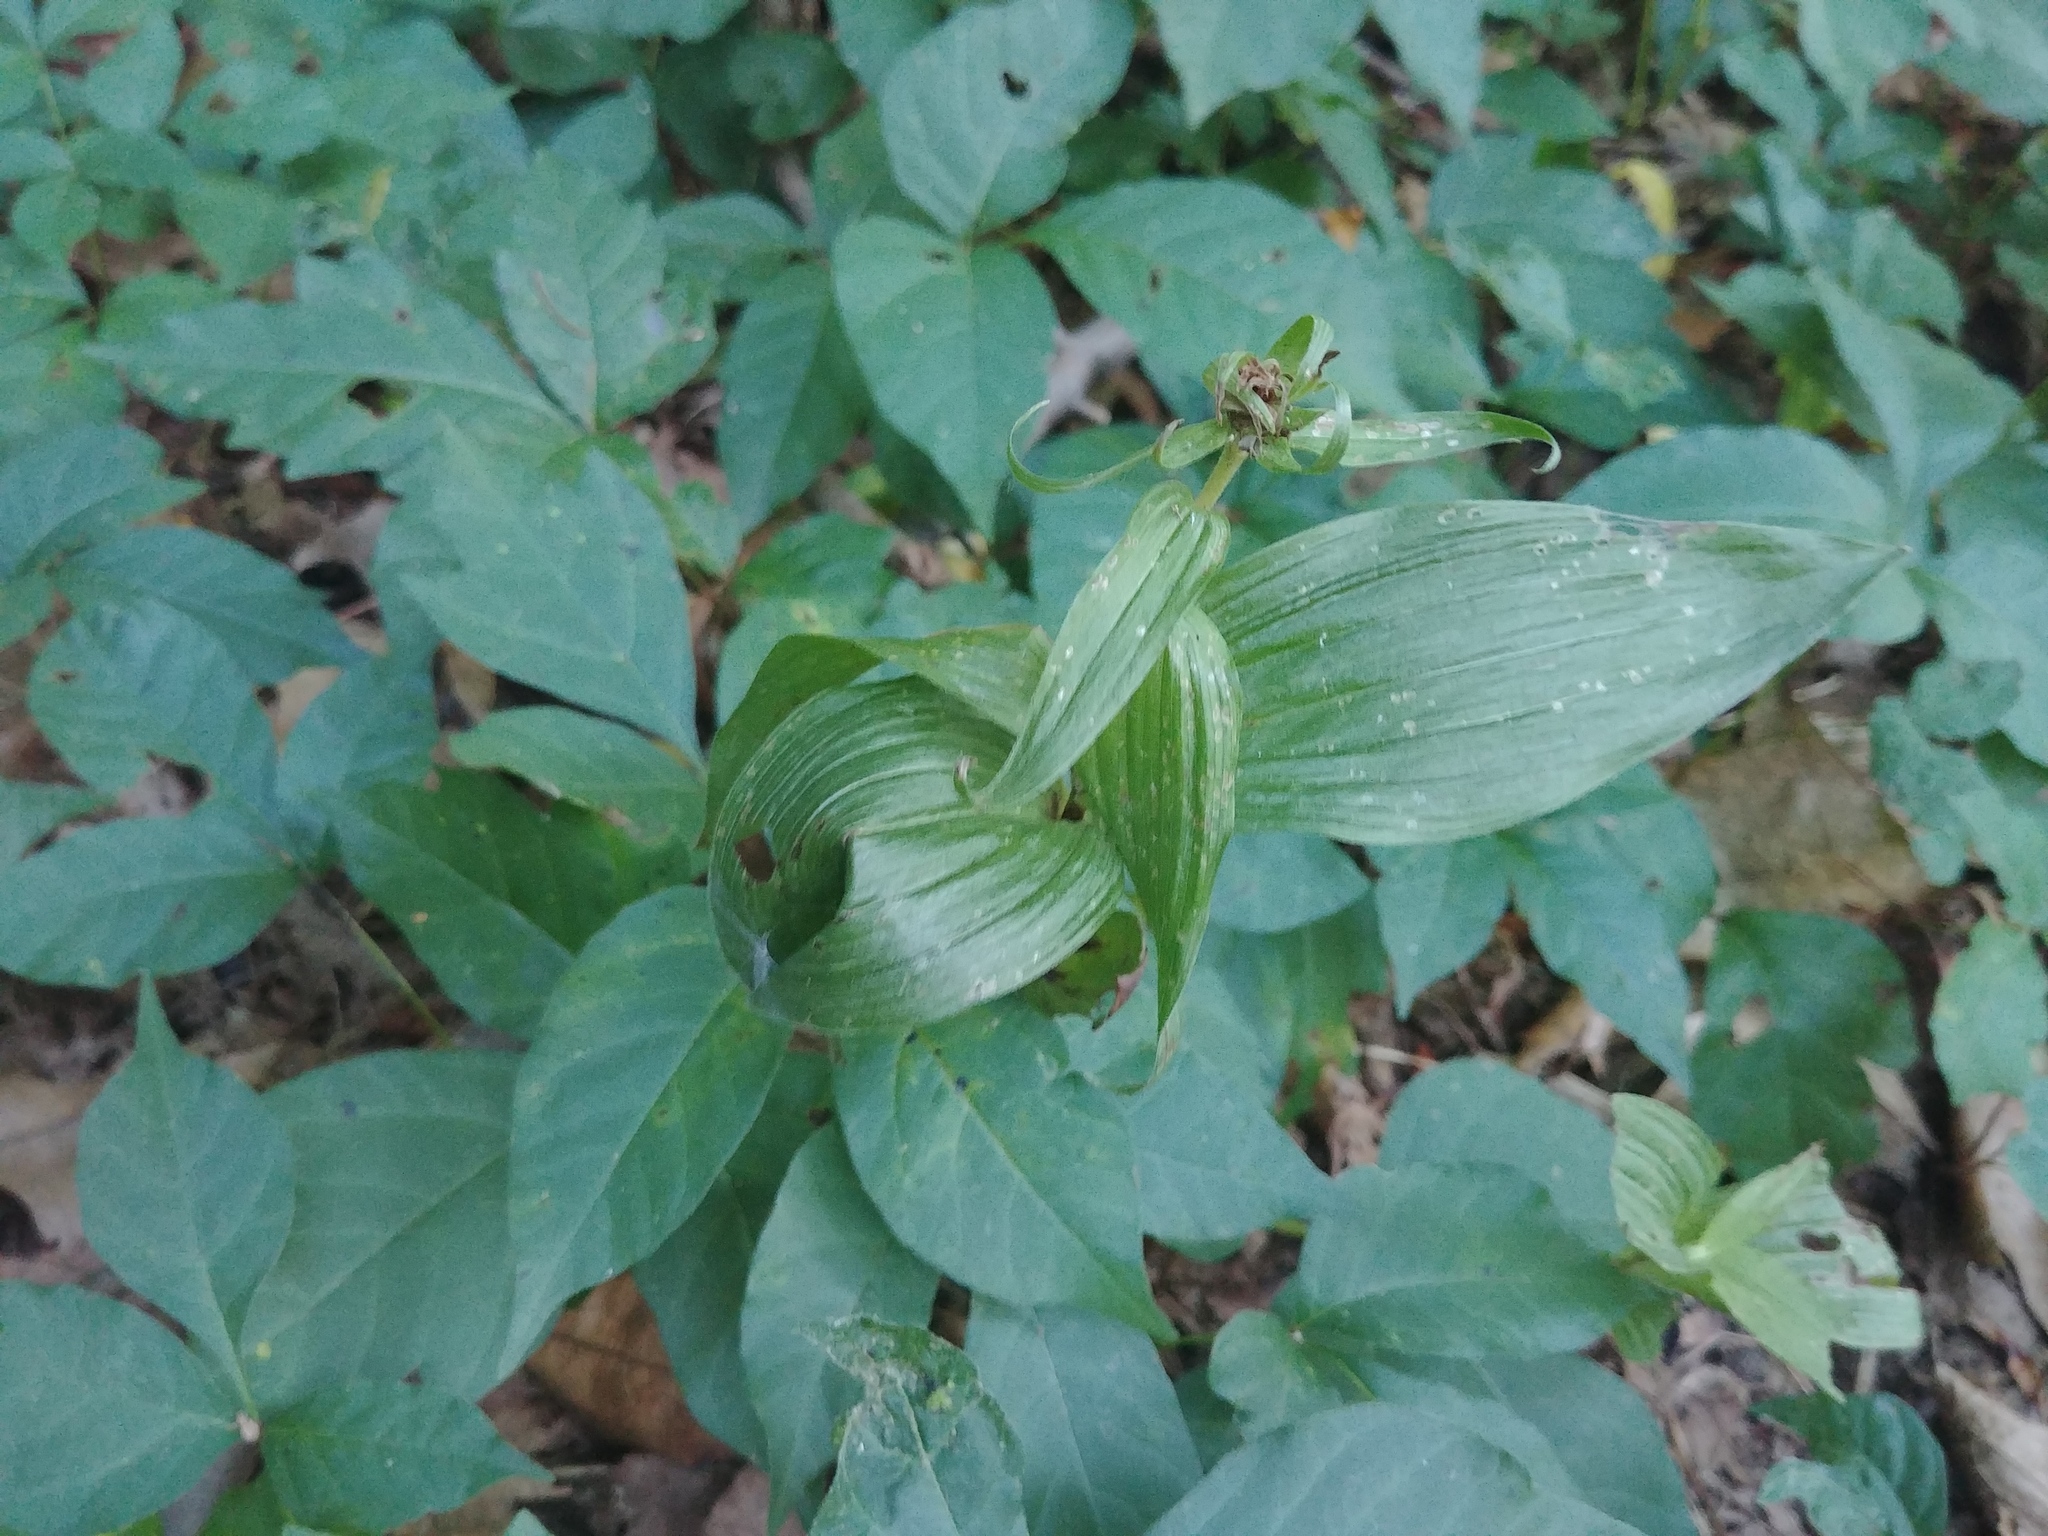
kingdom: Plantae
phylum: Tracheophyta
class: Liliopsida
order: Asparagales
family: Orchidaceae
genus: Epipactis
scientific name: Epipactis helleborine
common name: Broad-leaved helleborine
